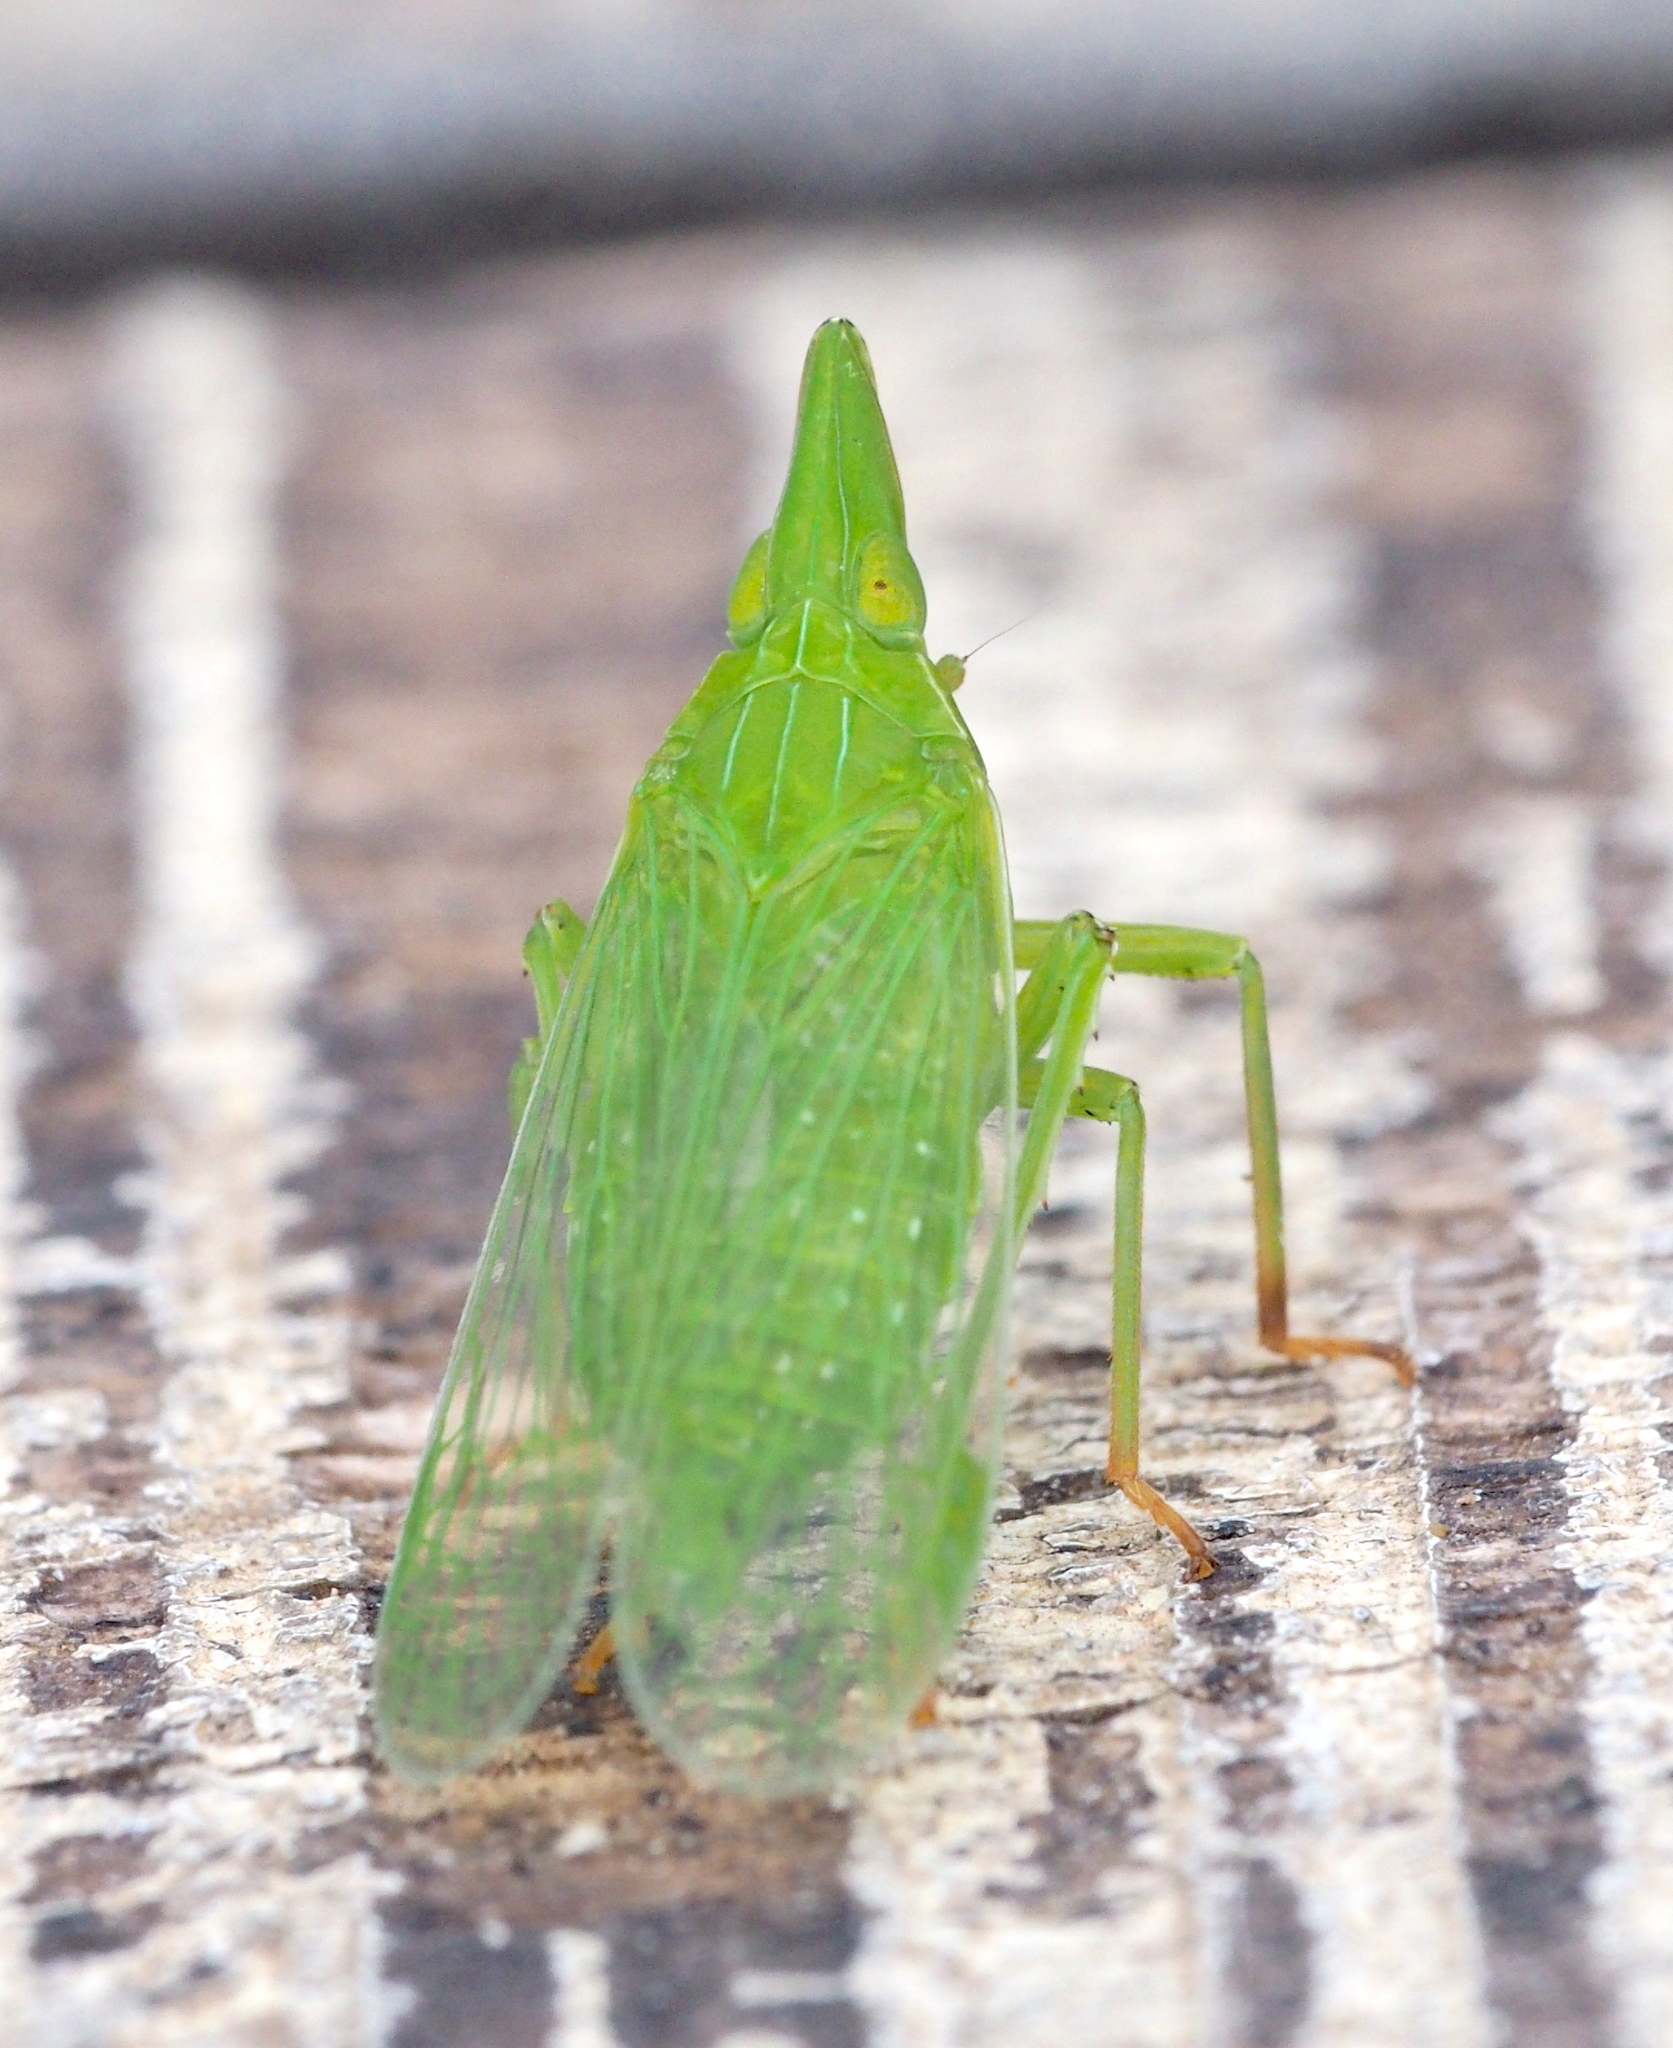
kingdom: Animalia
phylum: Arthropoda
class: Insecta
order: Hemiptera
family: Dictyopharidae
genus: Dictyophara
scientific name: Dictyophara europaea
